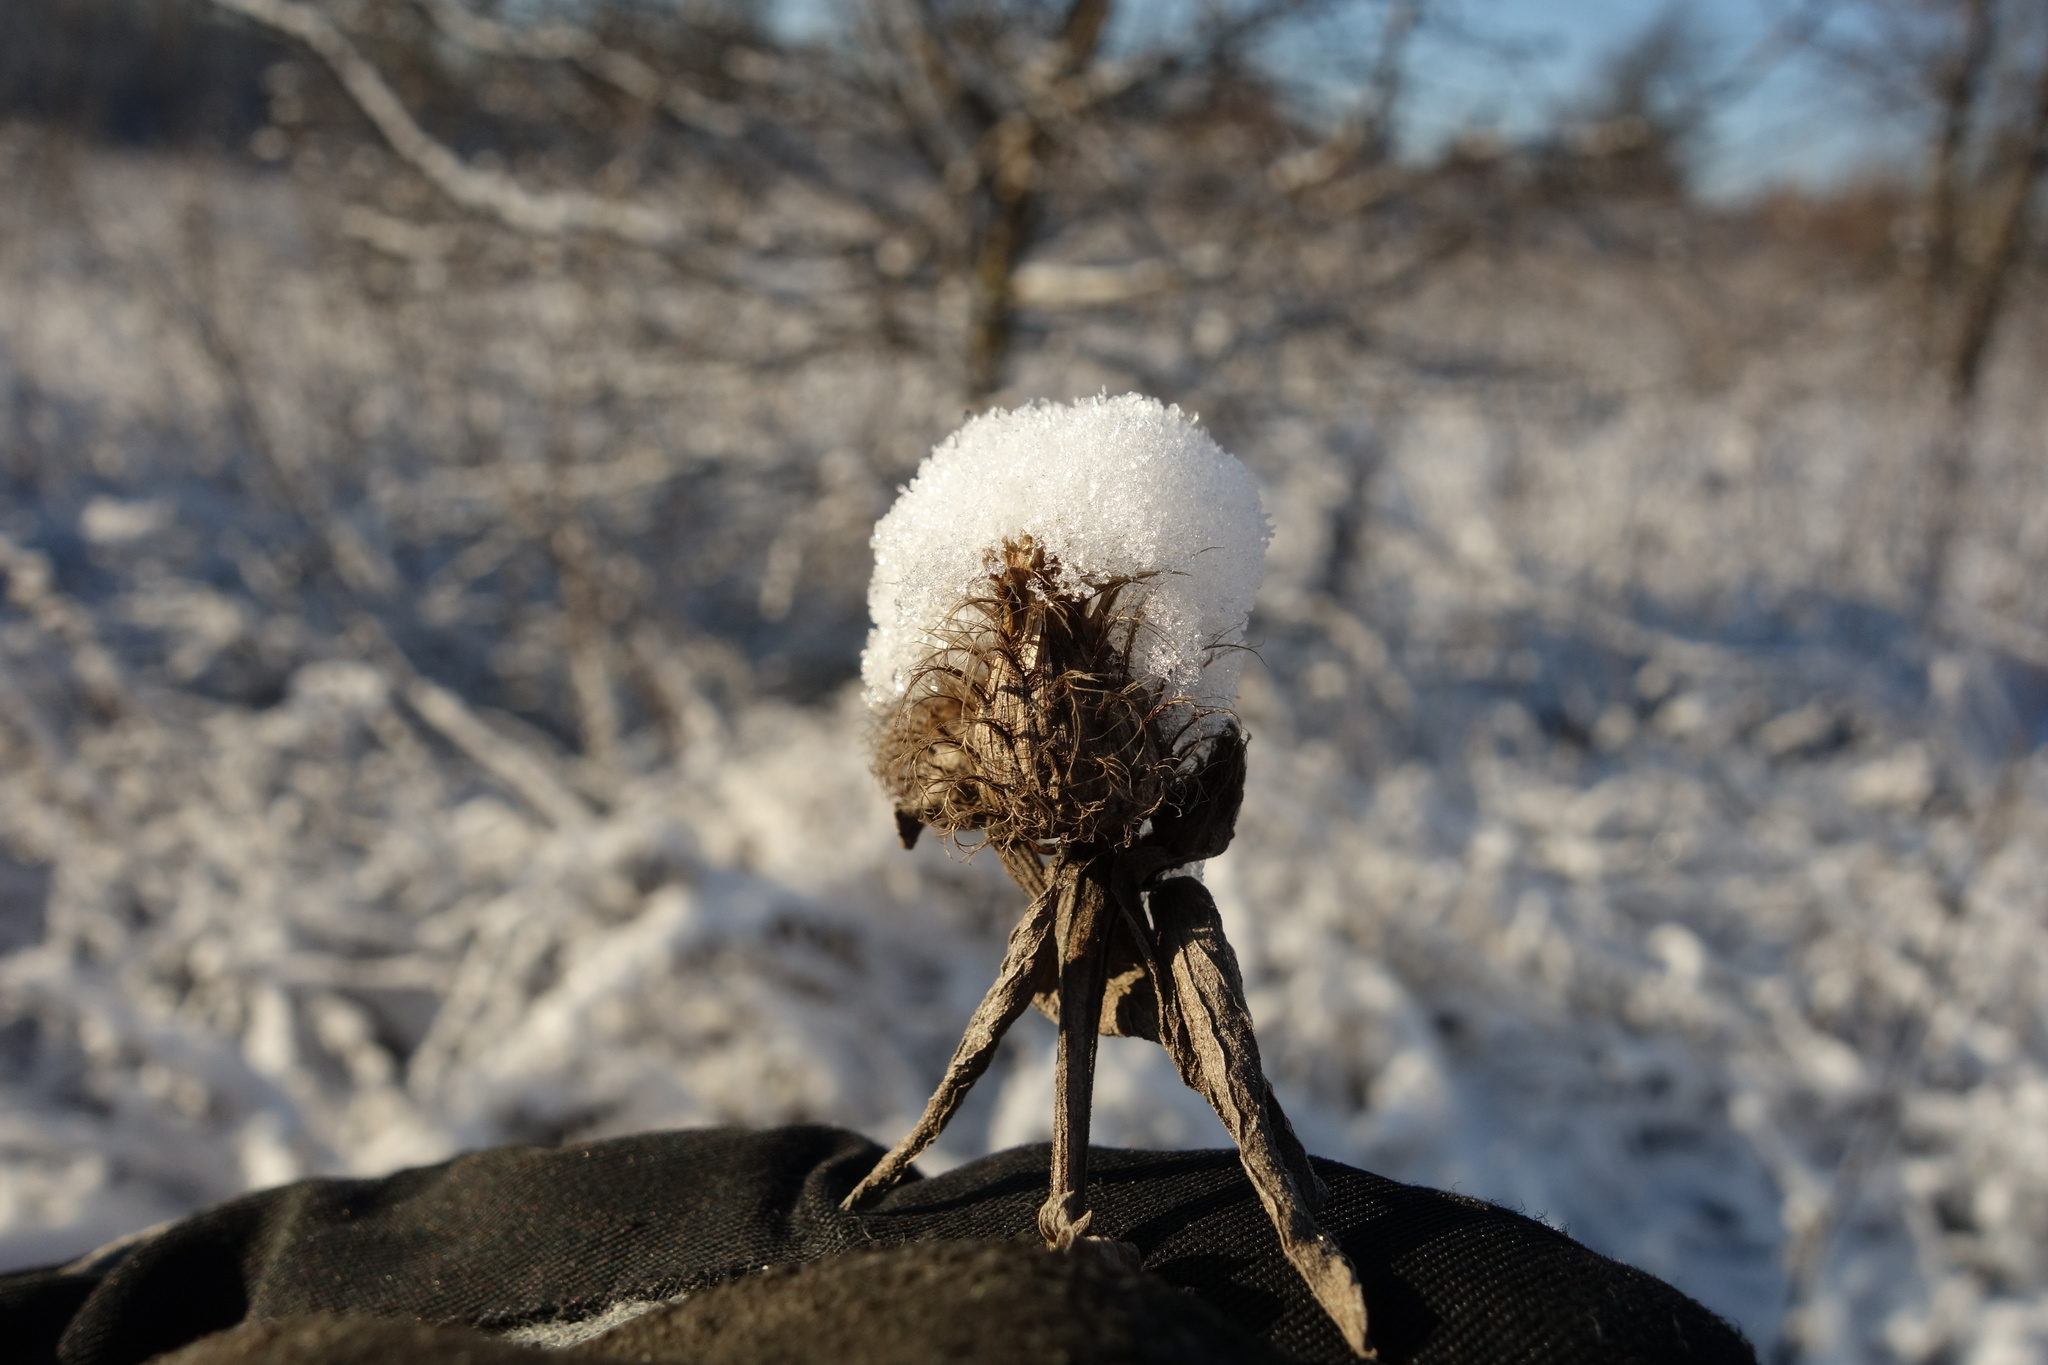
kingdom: Plantae
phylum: Tracheophyta
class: Magnoliopsida
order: Asterales
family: Asteraceae
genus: Centaurea
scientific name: Centaurea pseudophrygia
